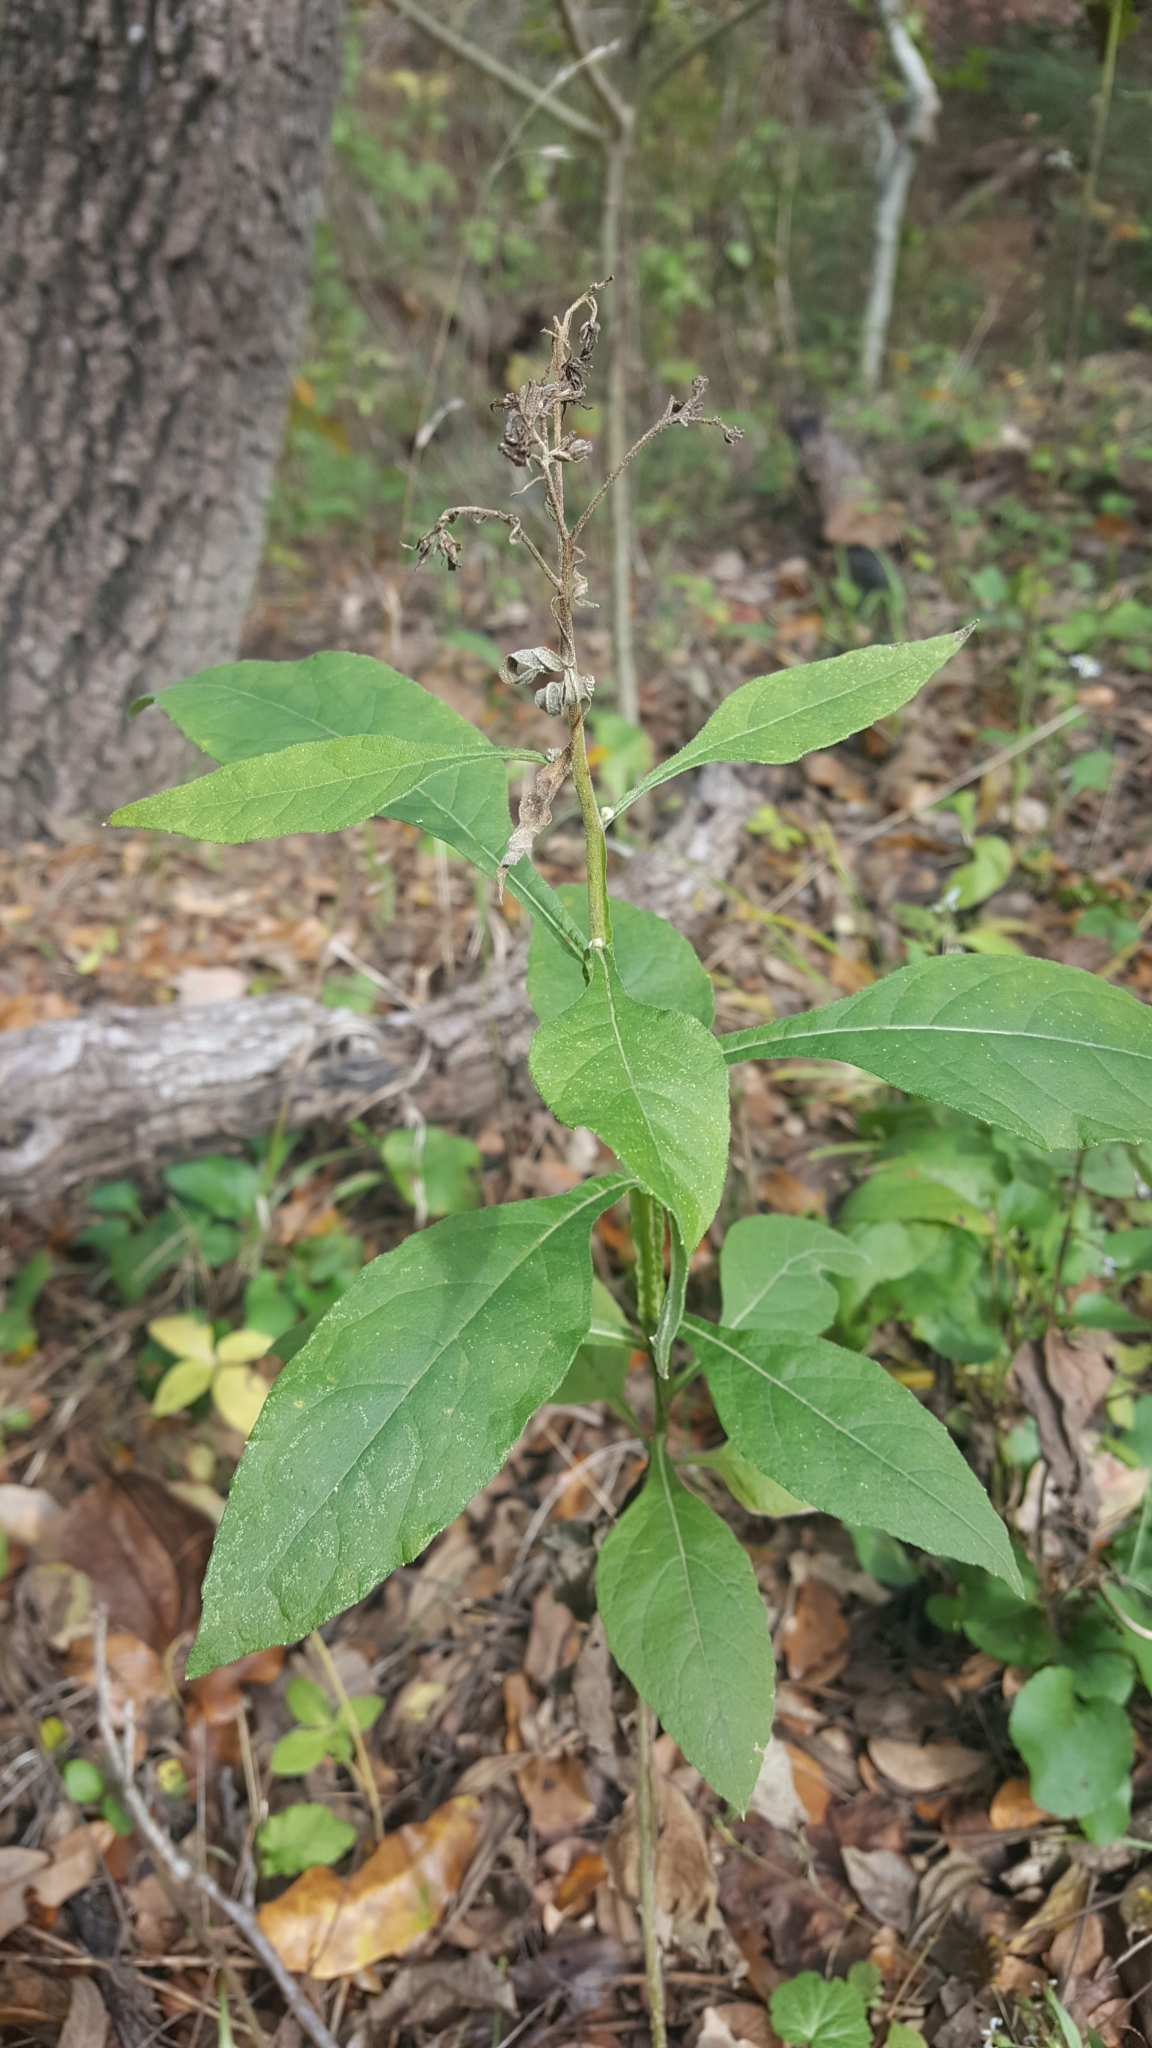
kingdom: Plantae
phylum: Tracheophyta
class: Magnoliopsida
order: Asterales
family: Asteraceae
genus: Verbesina
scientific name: Verbesina virginica
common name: Frostweed
